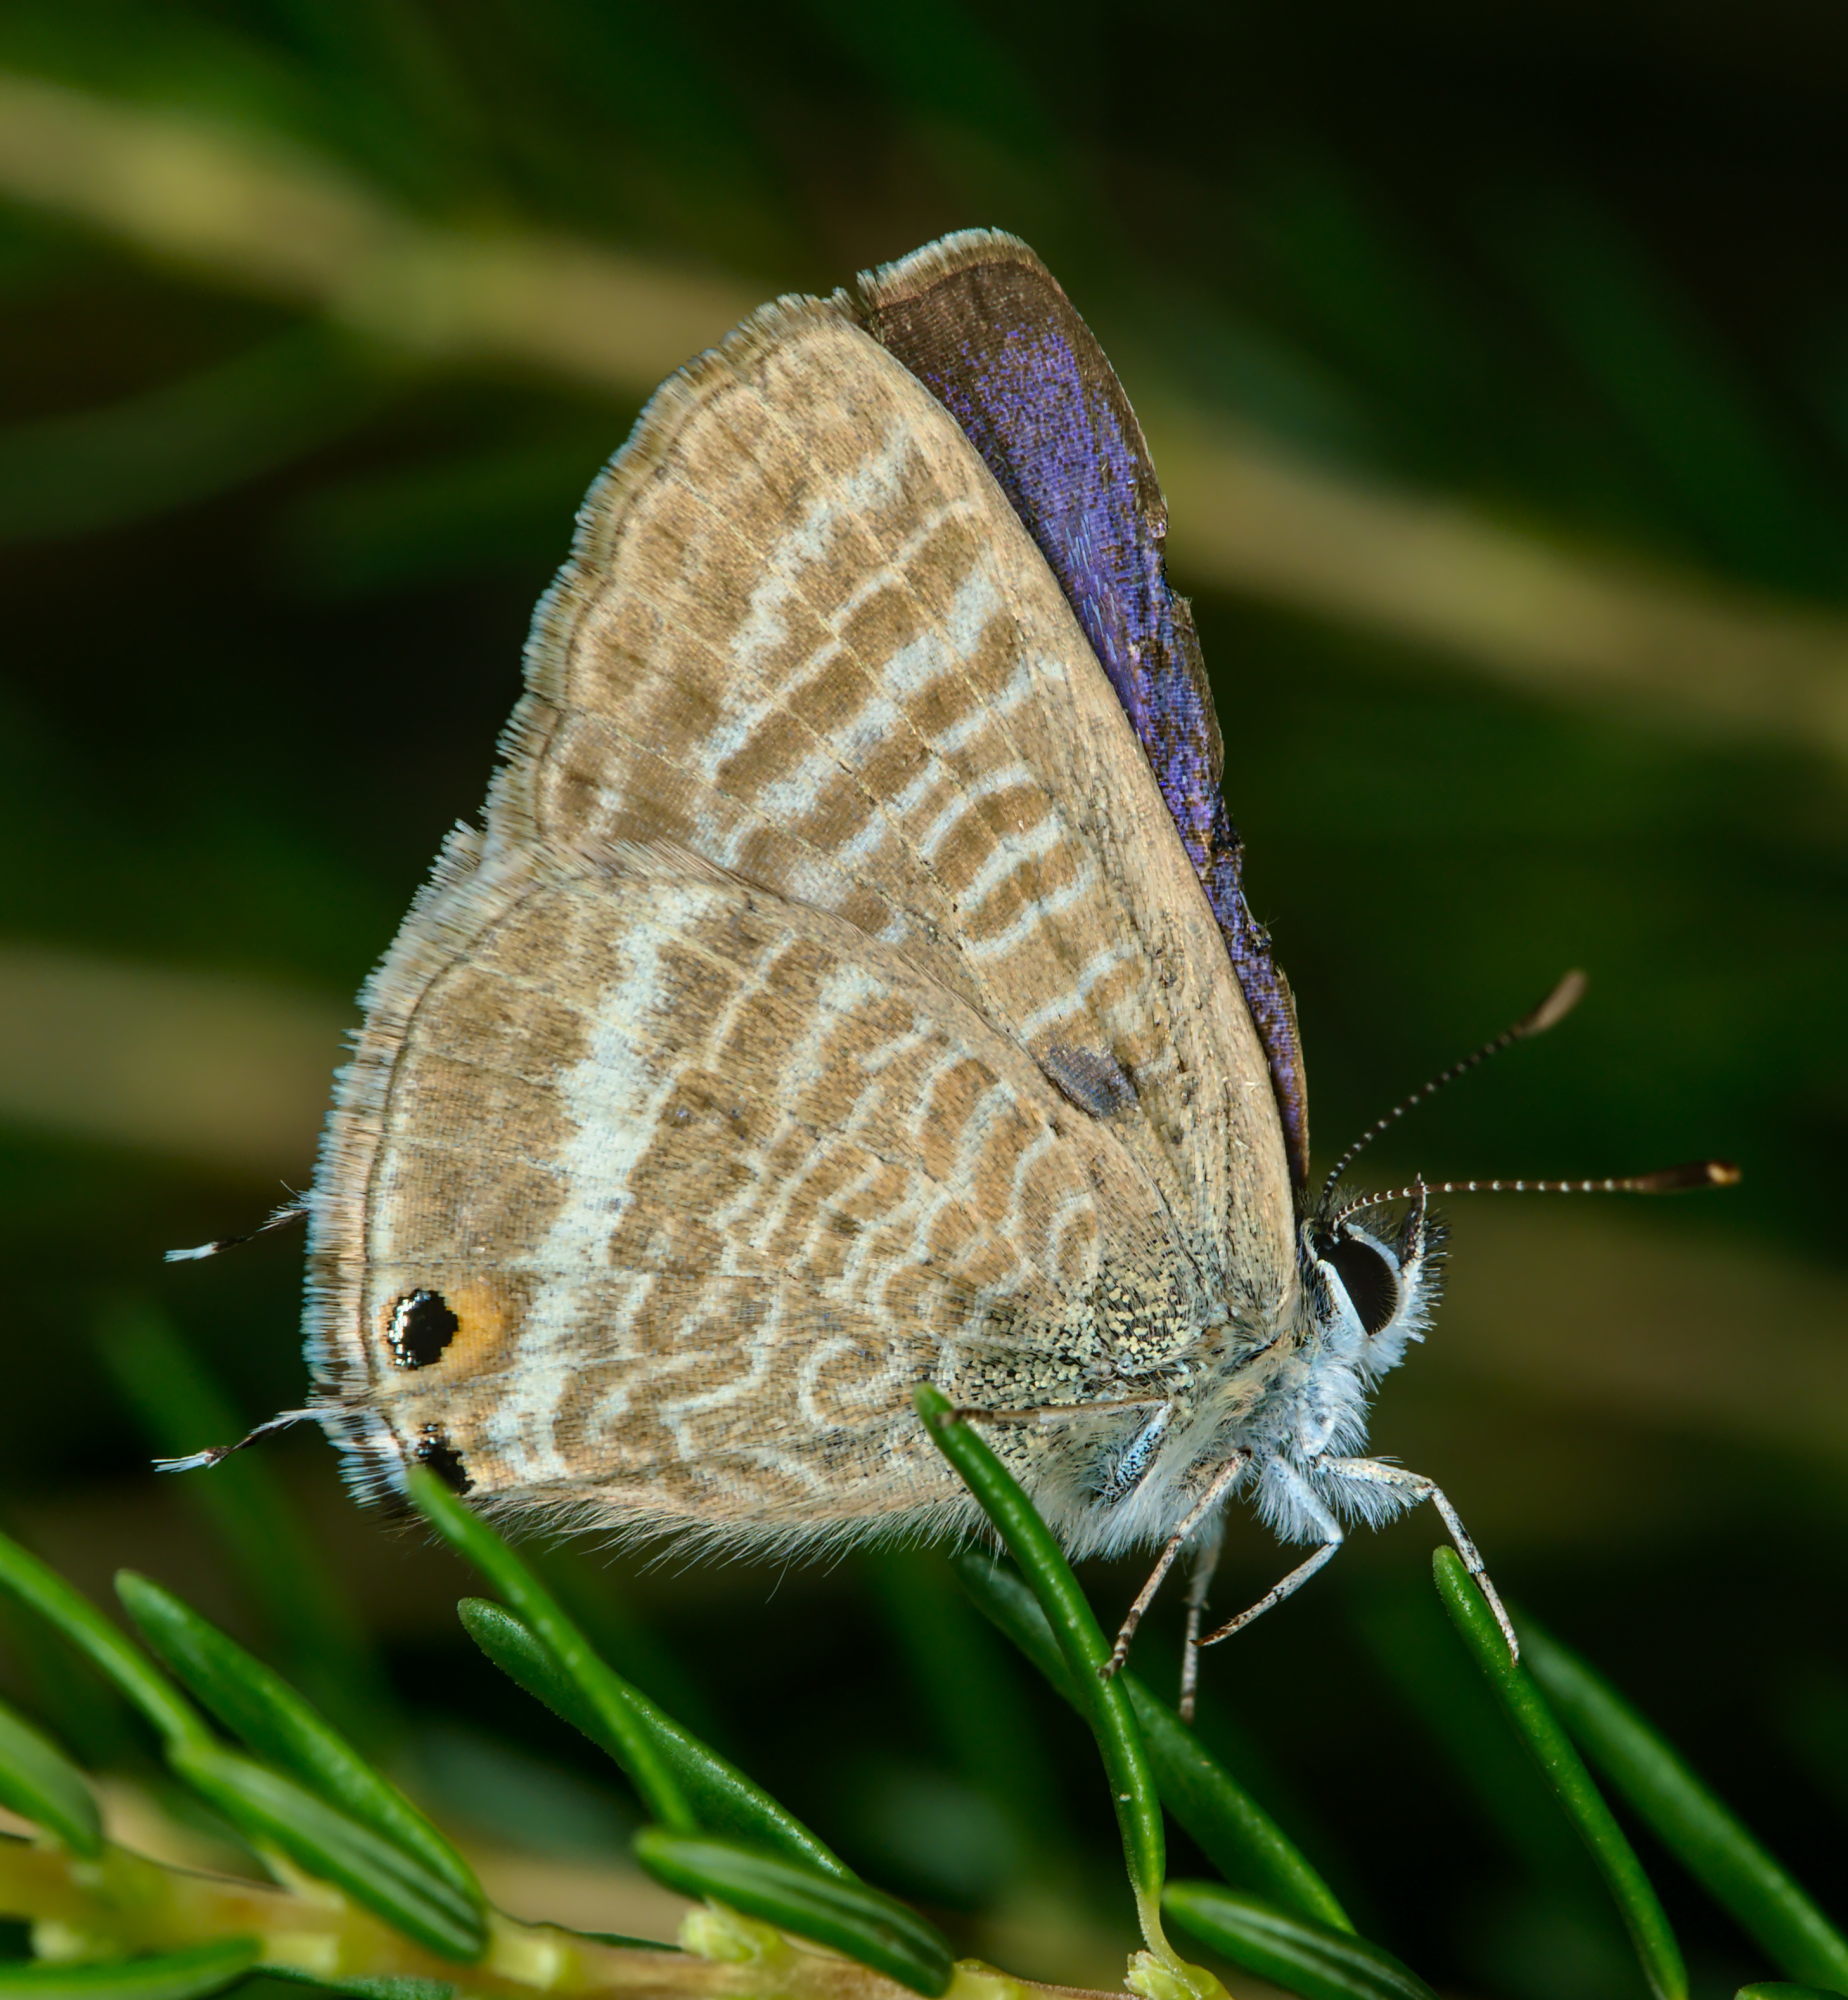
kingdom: Animalia
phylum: Arthropoda
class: Insecta
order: Lepidoptera
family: Lycaenidae
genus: Lampides
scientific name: Lampides boeticus
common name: Long-tailed blue
